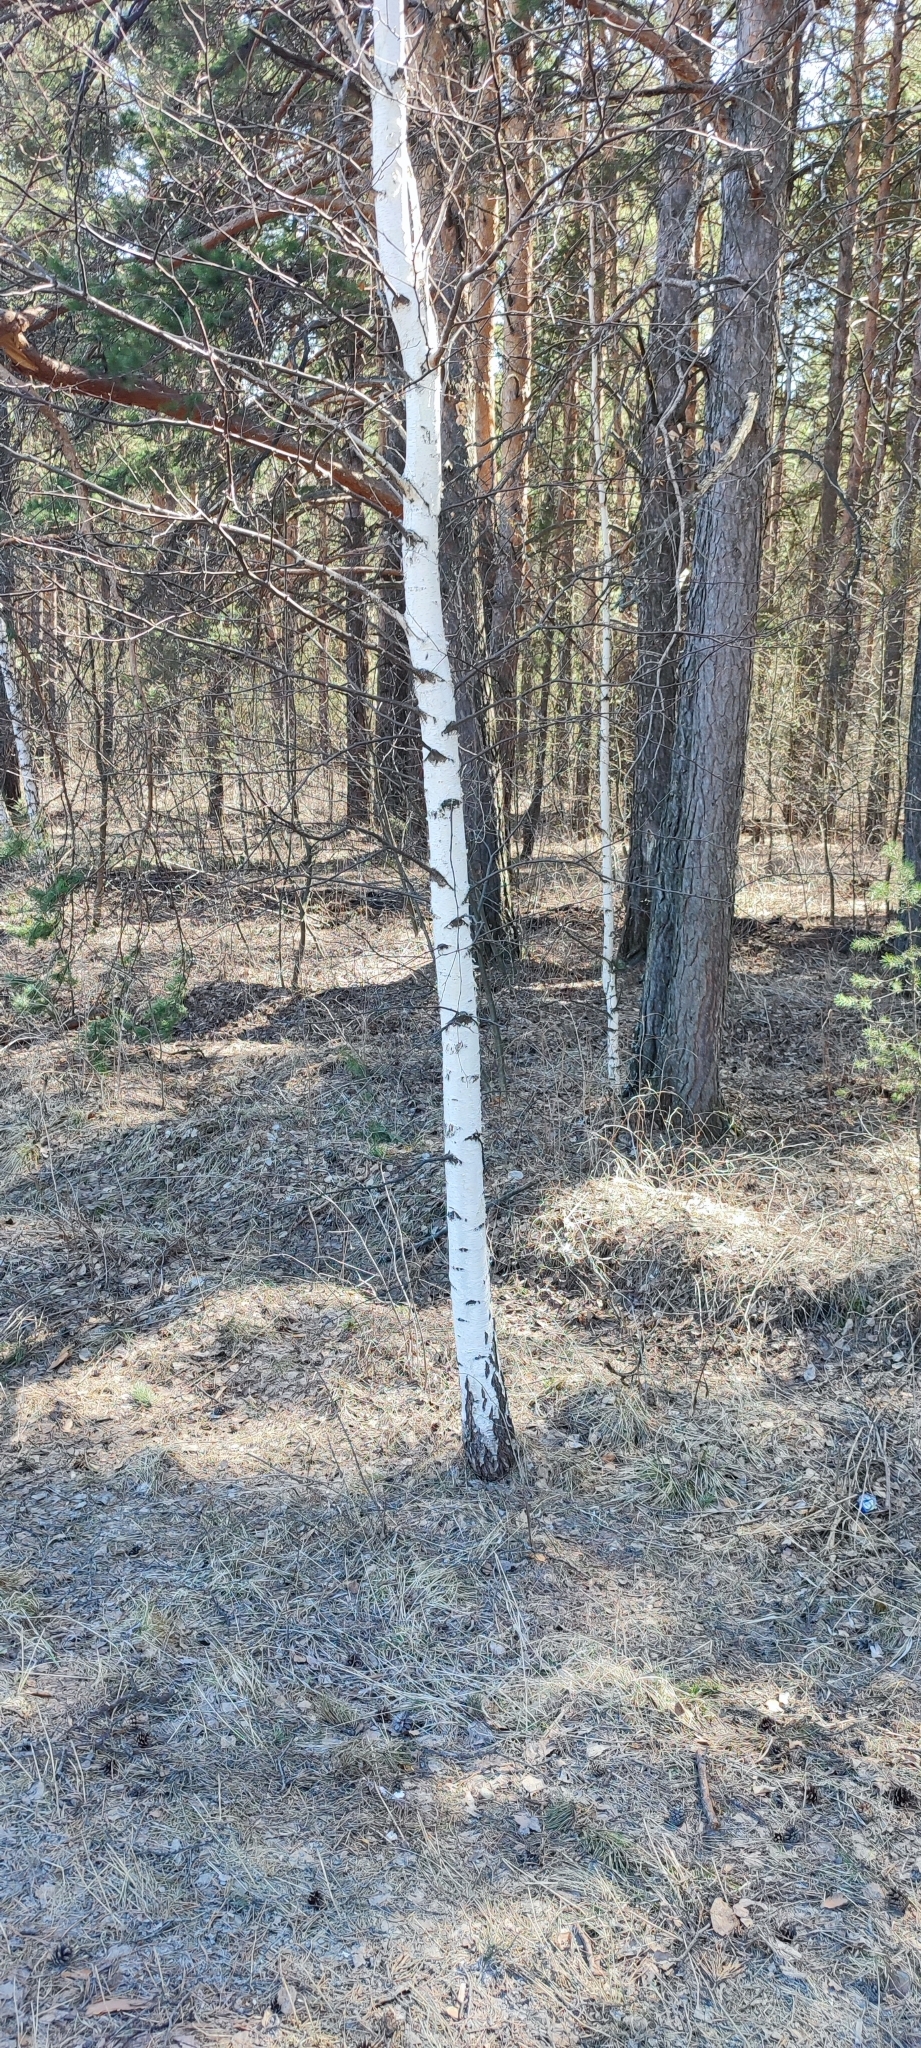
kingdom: Plantae
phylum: Tracheophyta
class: Magnoliopsida
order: Fagales
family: Betulaceae
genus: Betula
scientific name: Betula pendula
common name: Silver birch
